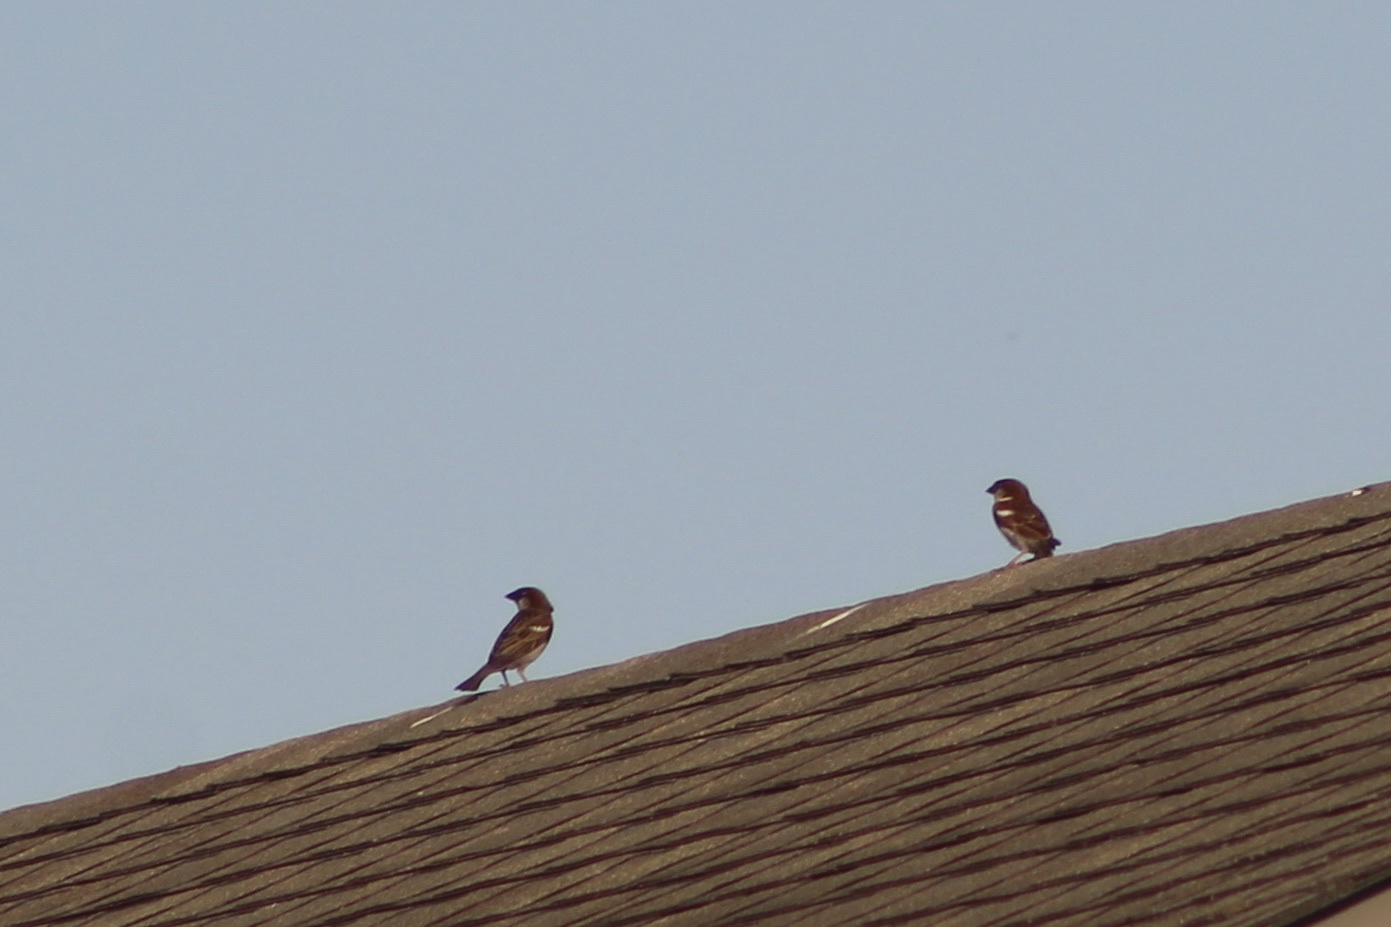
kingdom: Animalia
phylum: Chordata
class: Aves
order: Passeriformes
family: Passeridae
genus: Passer
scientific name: Passer domesticus
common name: House sparrow
